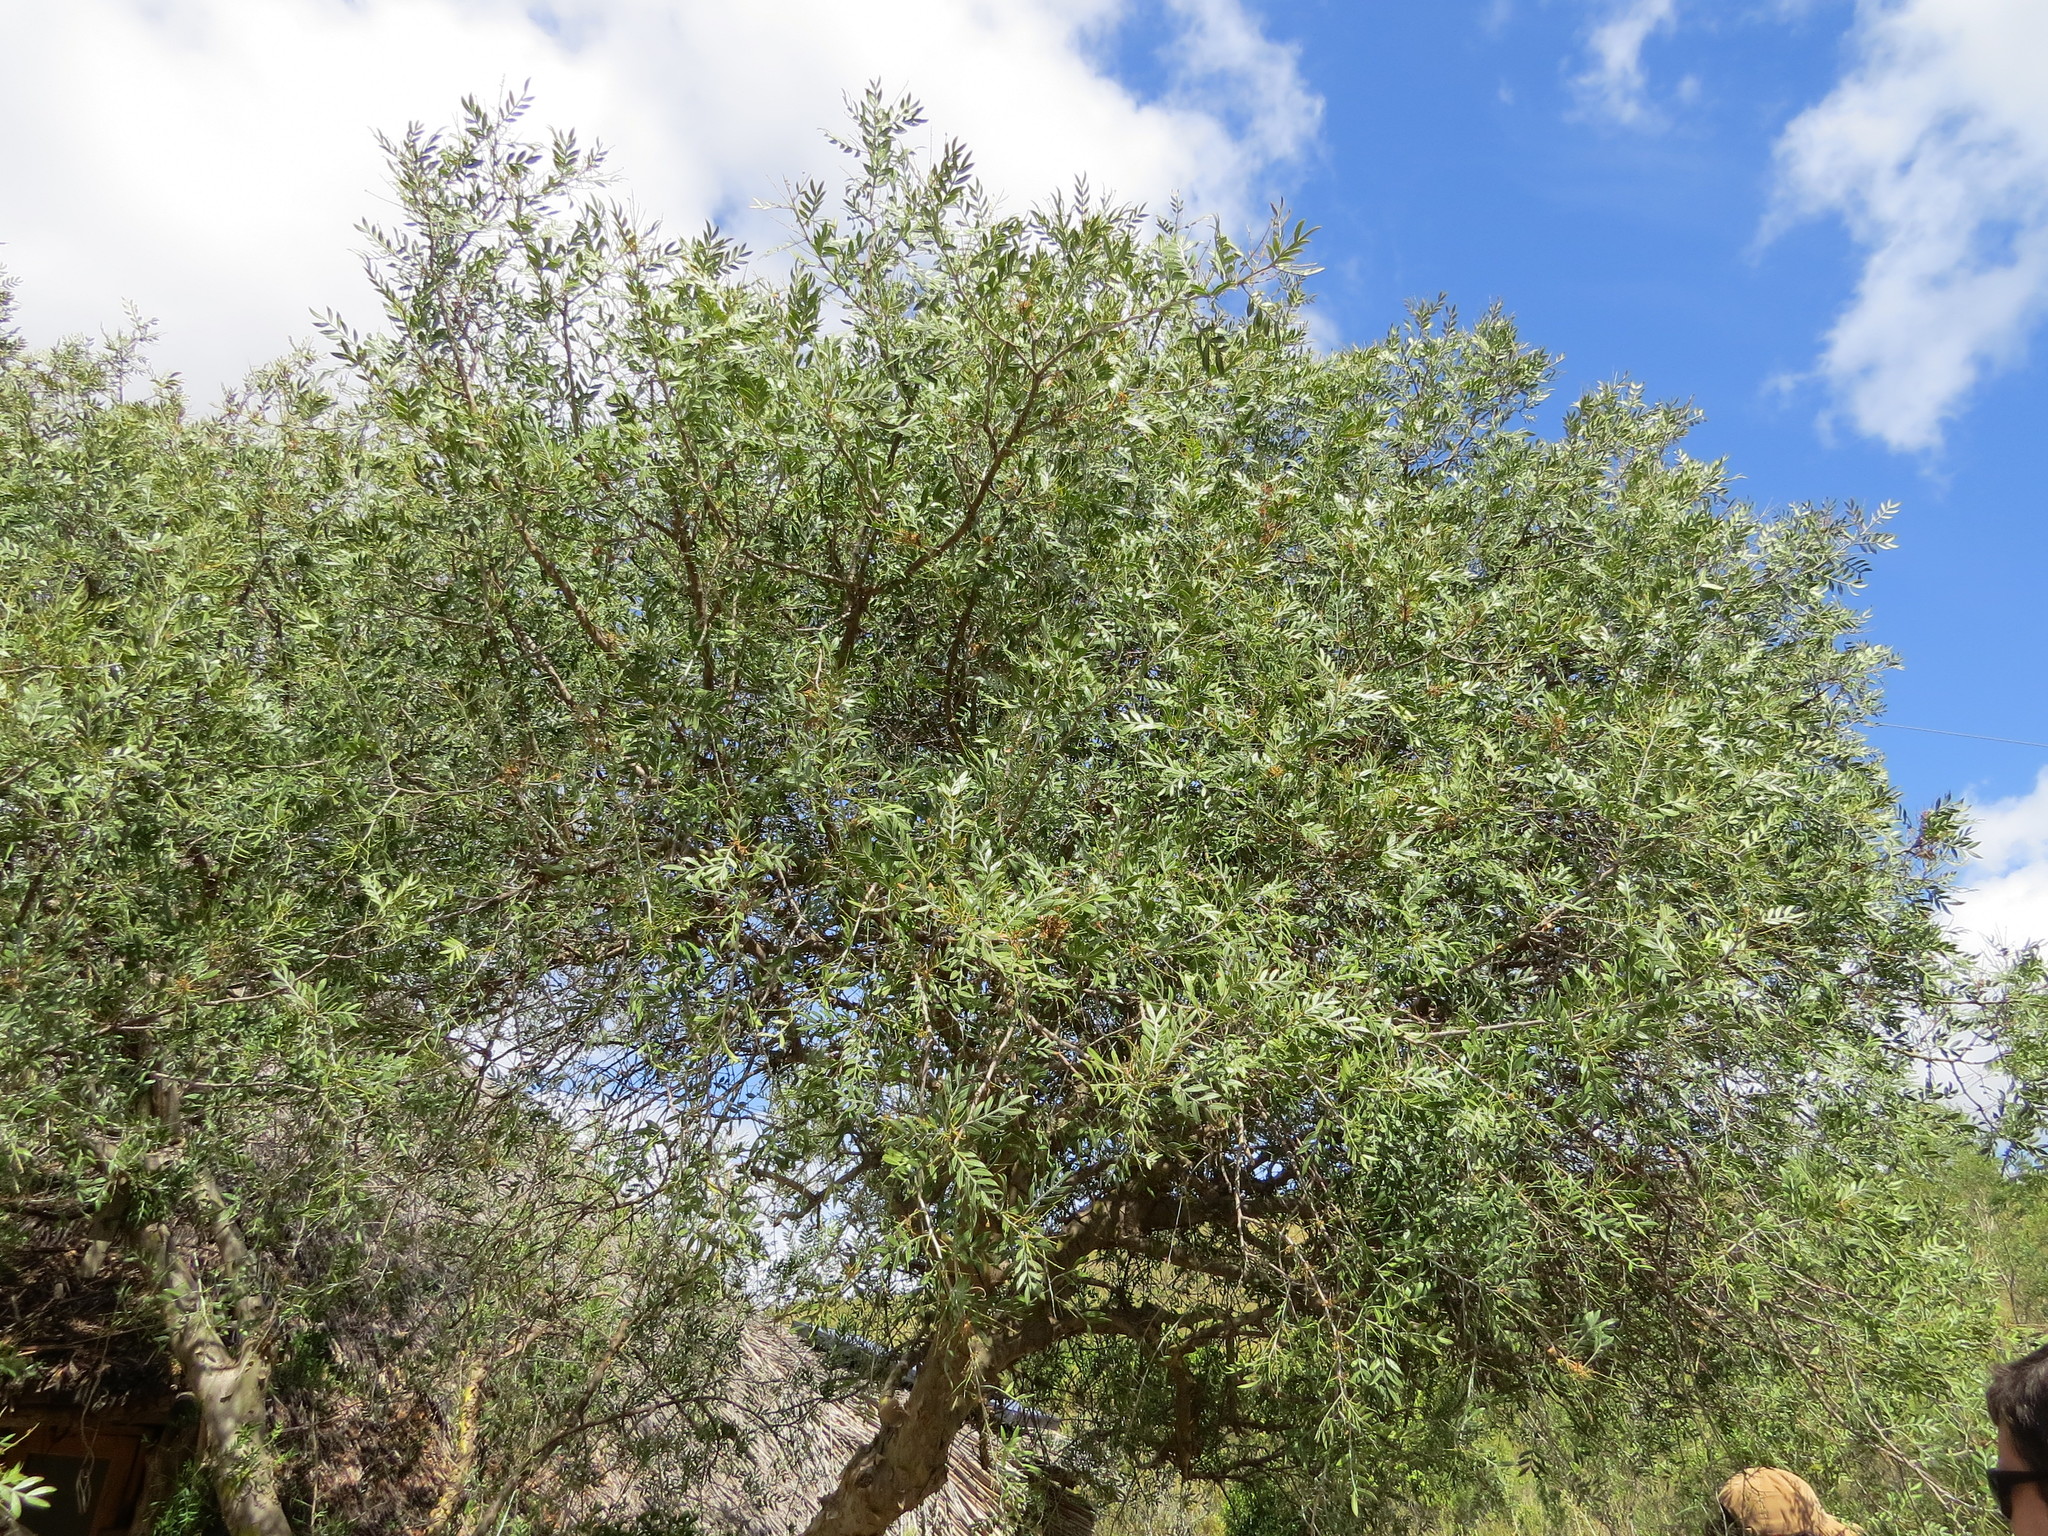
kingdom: Plantae
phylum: Tracheophyta
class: Magnoliopsida
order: Sapindales
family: Anacardiaceae
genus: Schinus
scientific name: Schinus lentiscifolia
